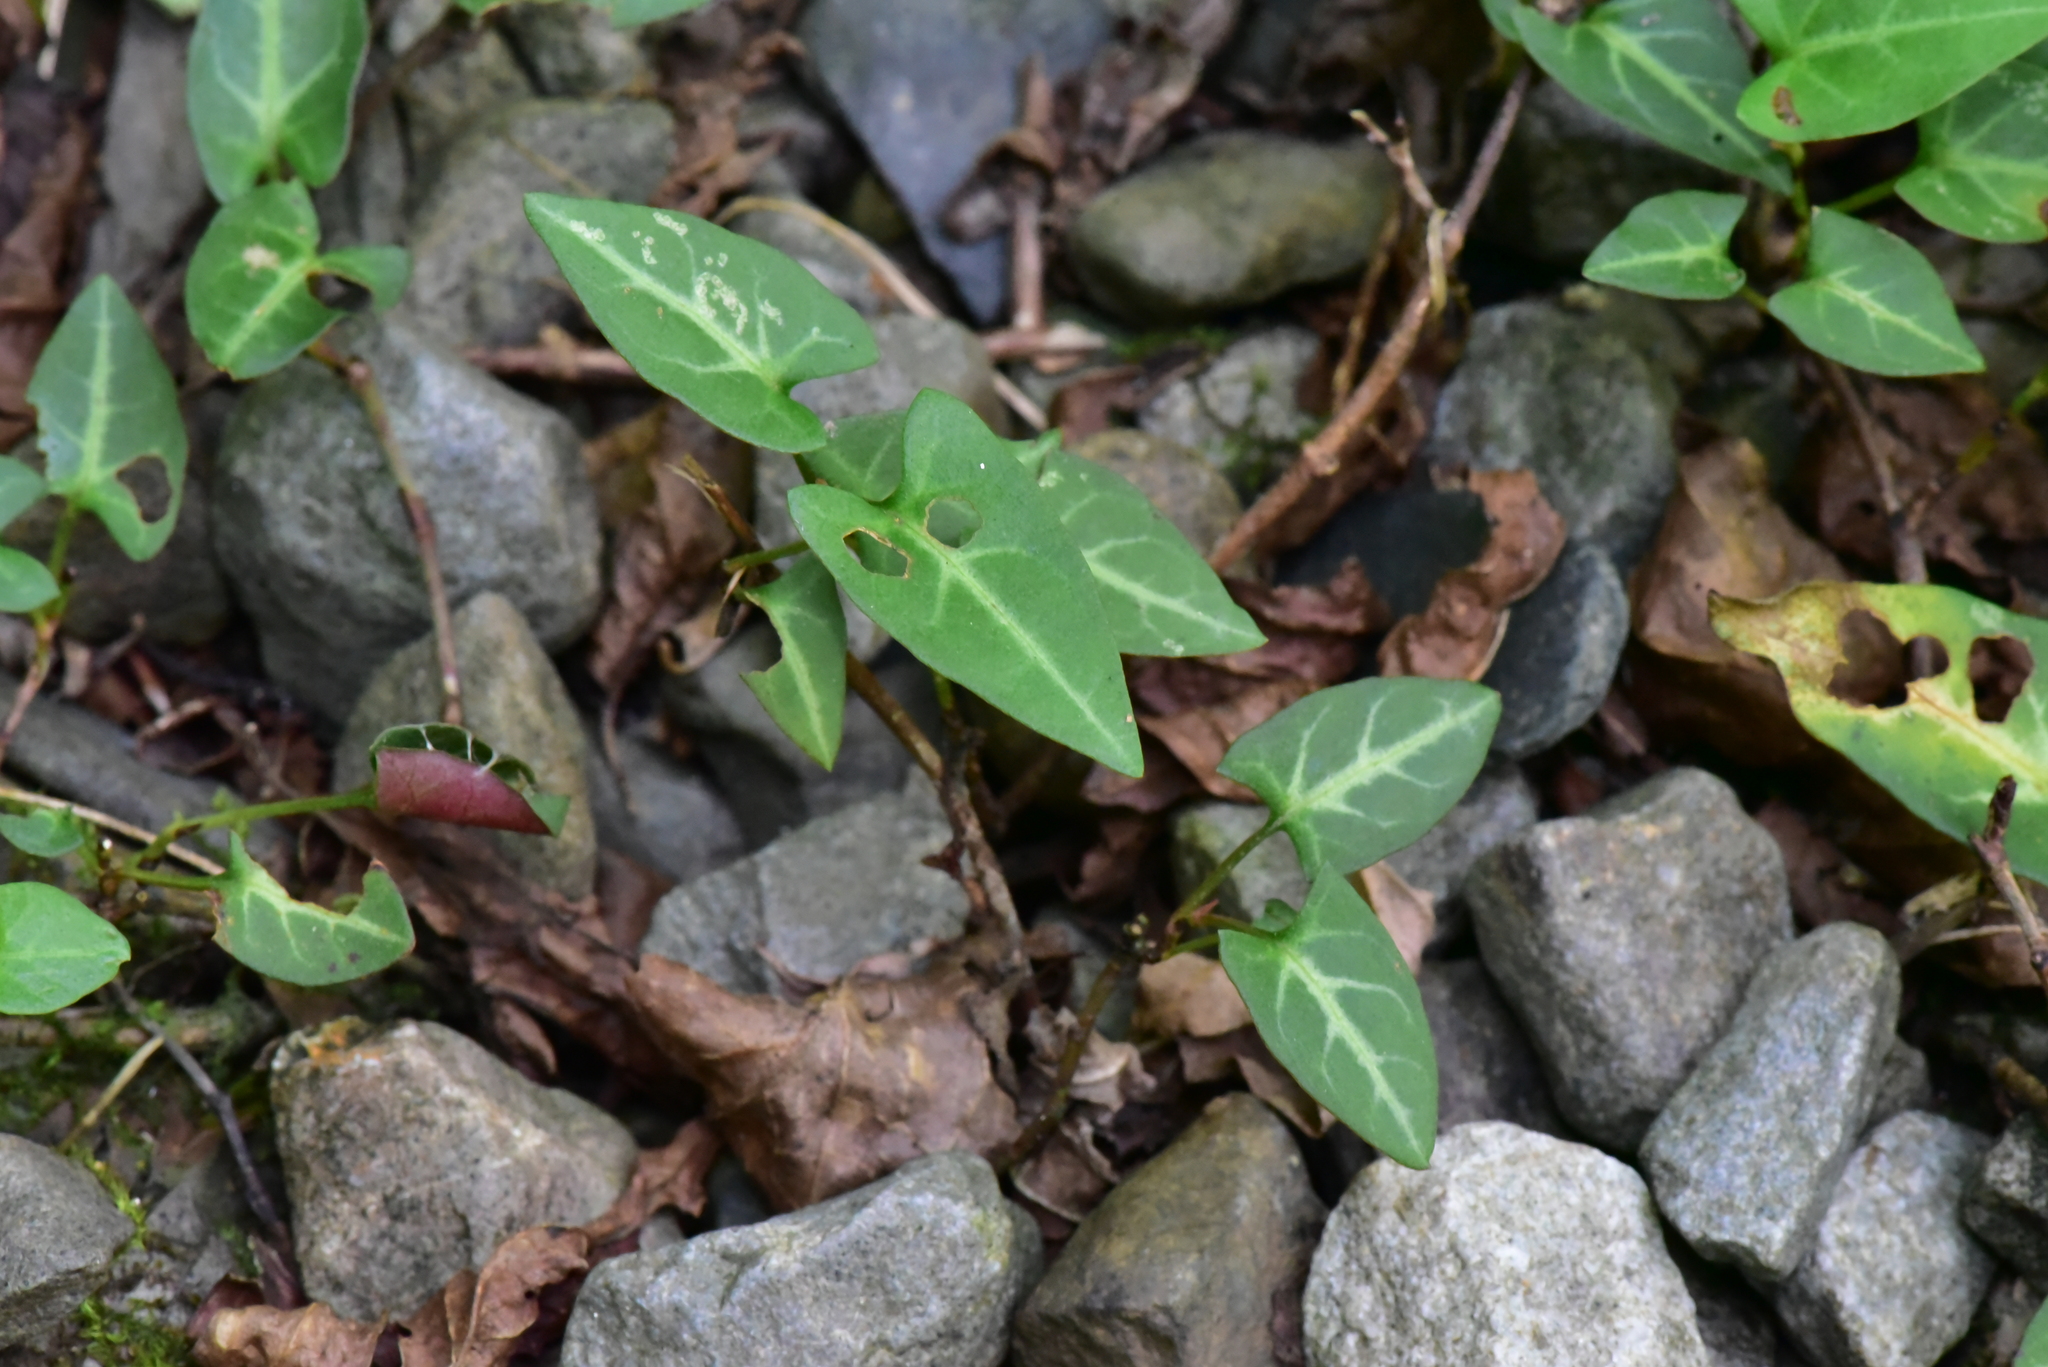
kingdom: Plantae
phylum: Tracheophyta
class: Magnoliopsida
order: Caryophyllales
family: Polygonaceae
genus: Reynoutria
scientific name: Reynoutria multiflora
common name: Chinese fleeceflower
